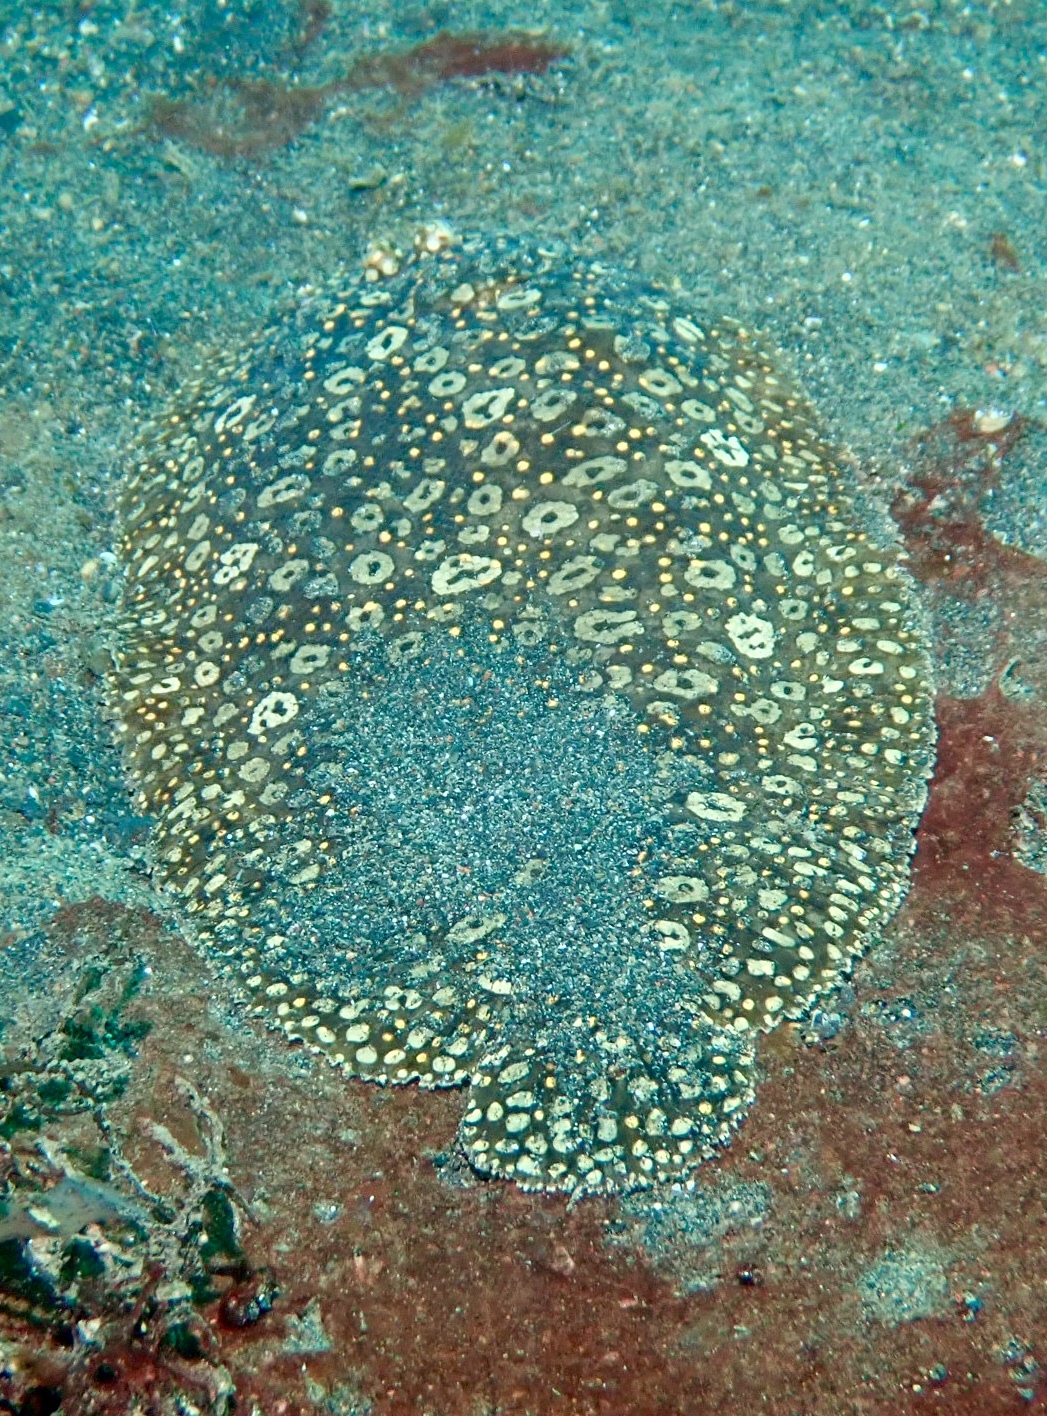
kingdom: Animalia
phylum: Chordata
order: Pleuronectiformes
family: Soleidae
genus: Pardachirus
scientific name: Pardachirus pavoninus
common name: Ocellated sole
